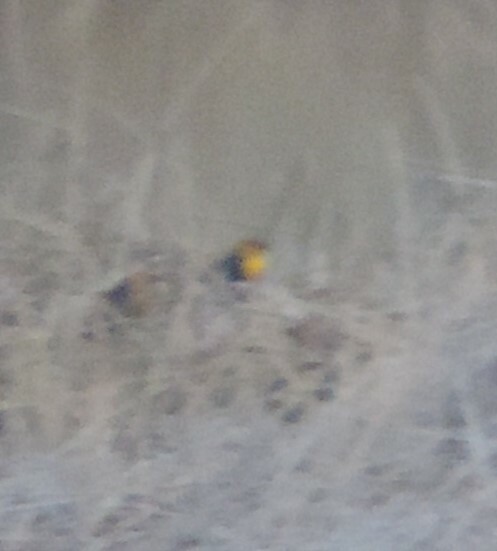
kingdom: Animalia
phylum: Chordata
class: Aves
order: Passeriformes
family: Icteridae
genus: Xanthocephalus
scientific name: Xanthocephalus xanthocephalus
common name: Yellow-headed blackbird
